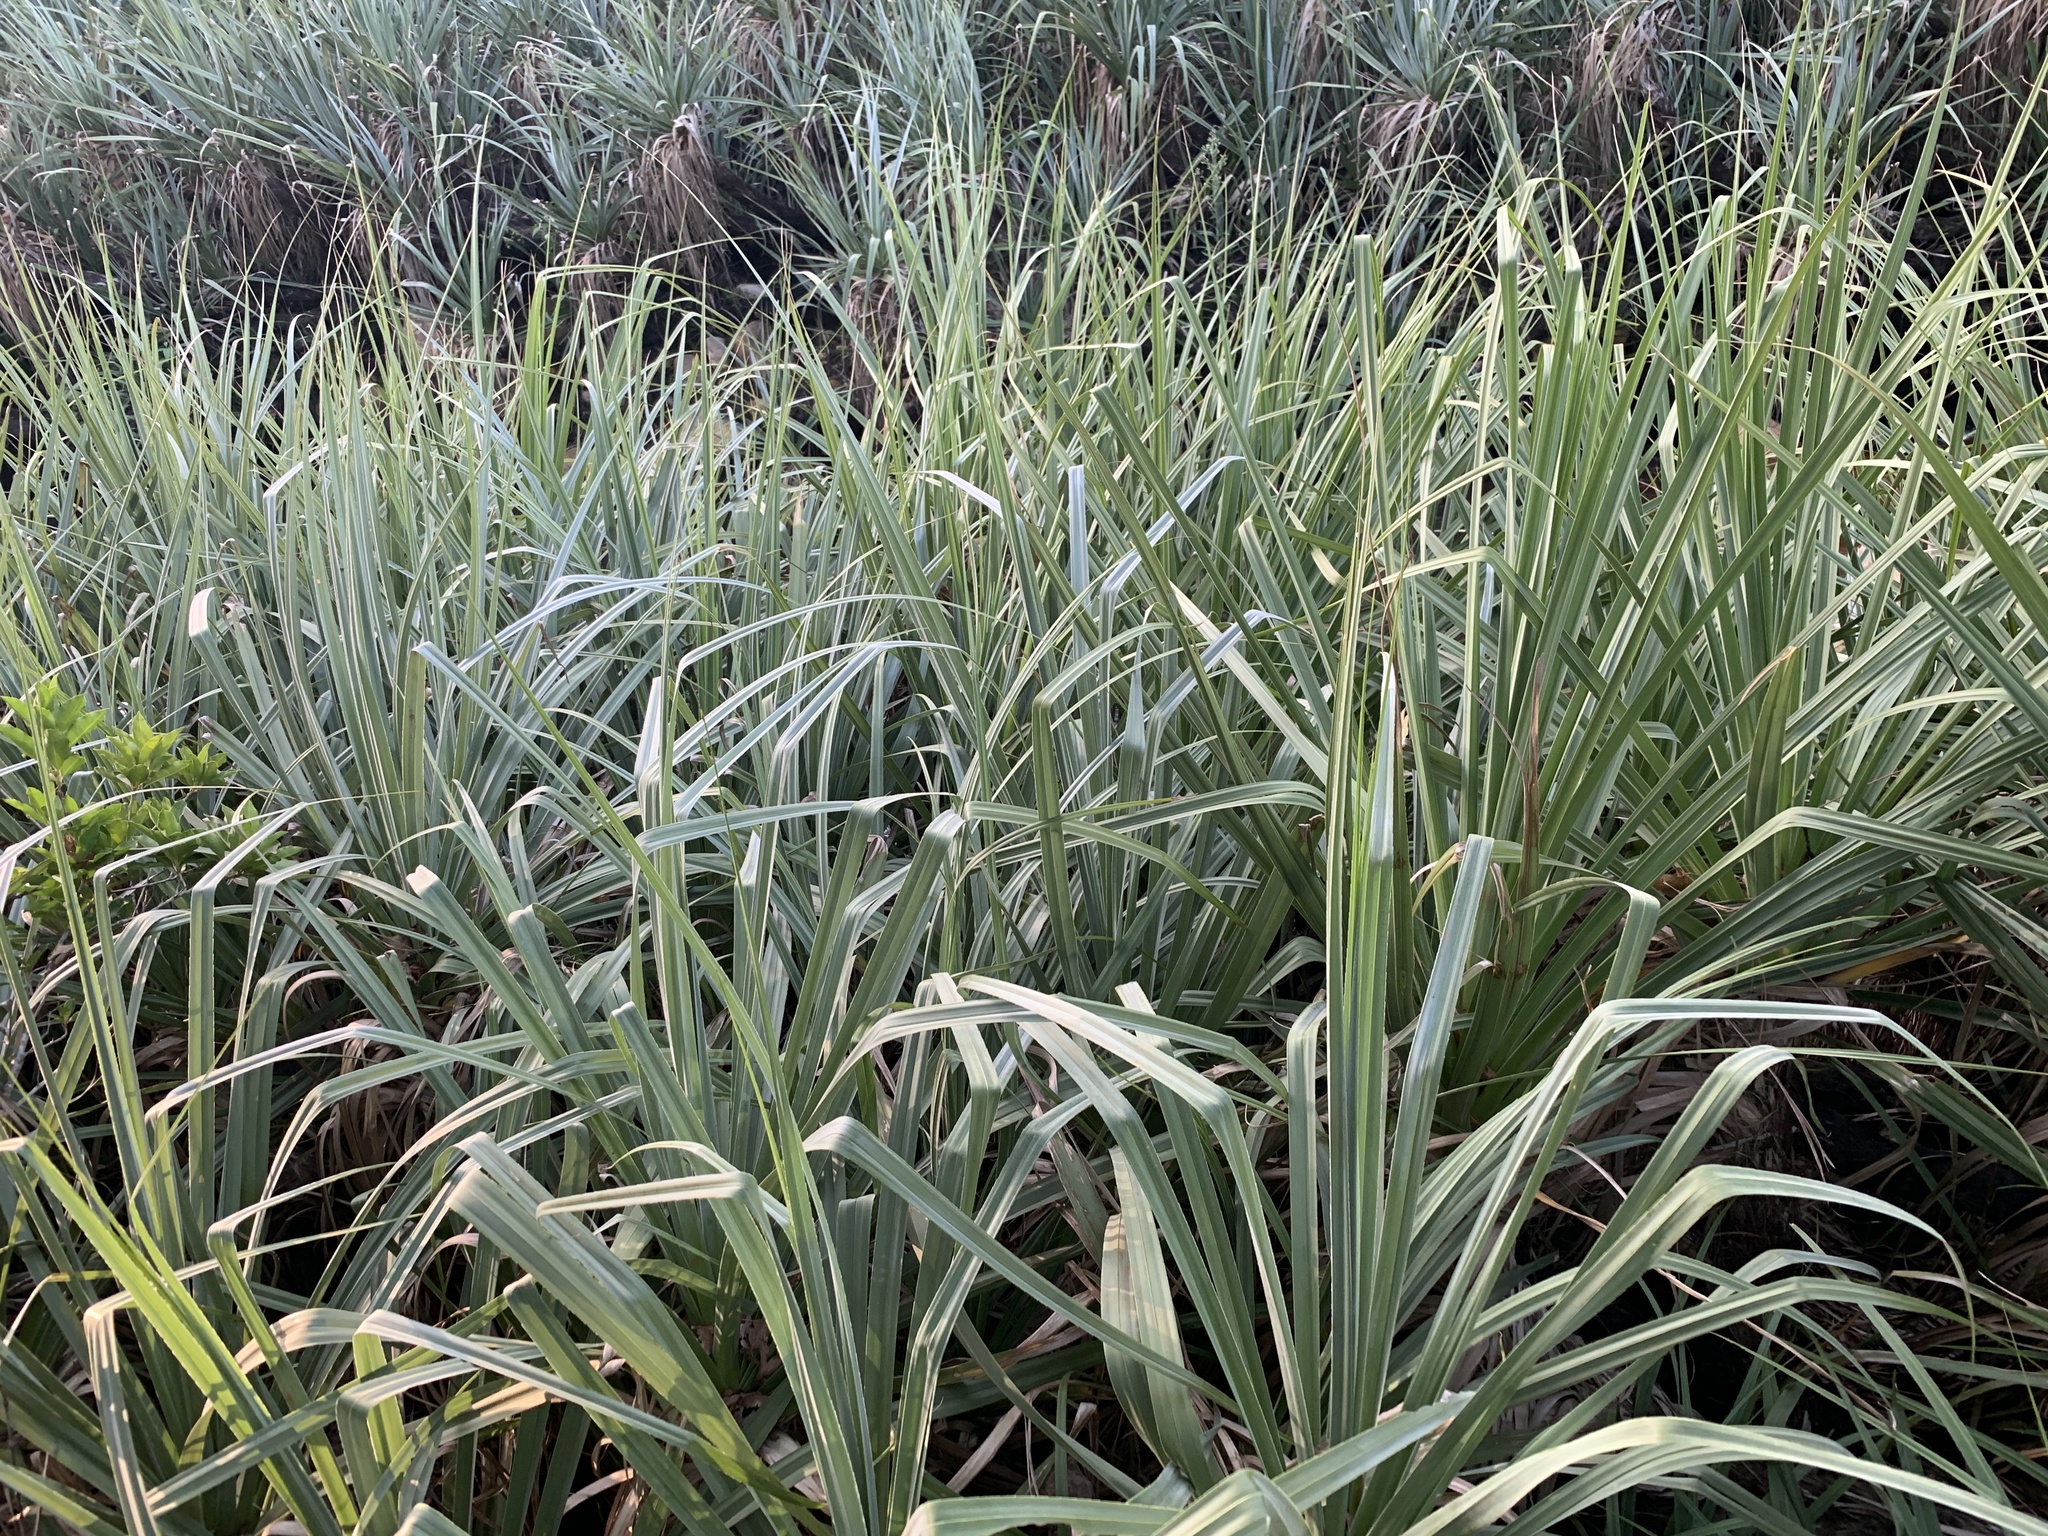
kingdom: Plantae
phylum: Tracheophyta
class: Liliopsida
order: Poales
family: Thurniaceae
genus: Prionium
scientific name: Prionium serratum
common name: Palmiet
